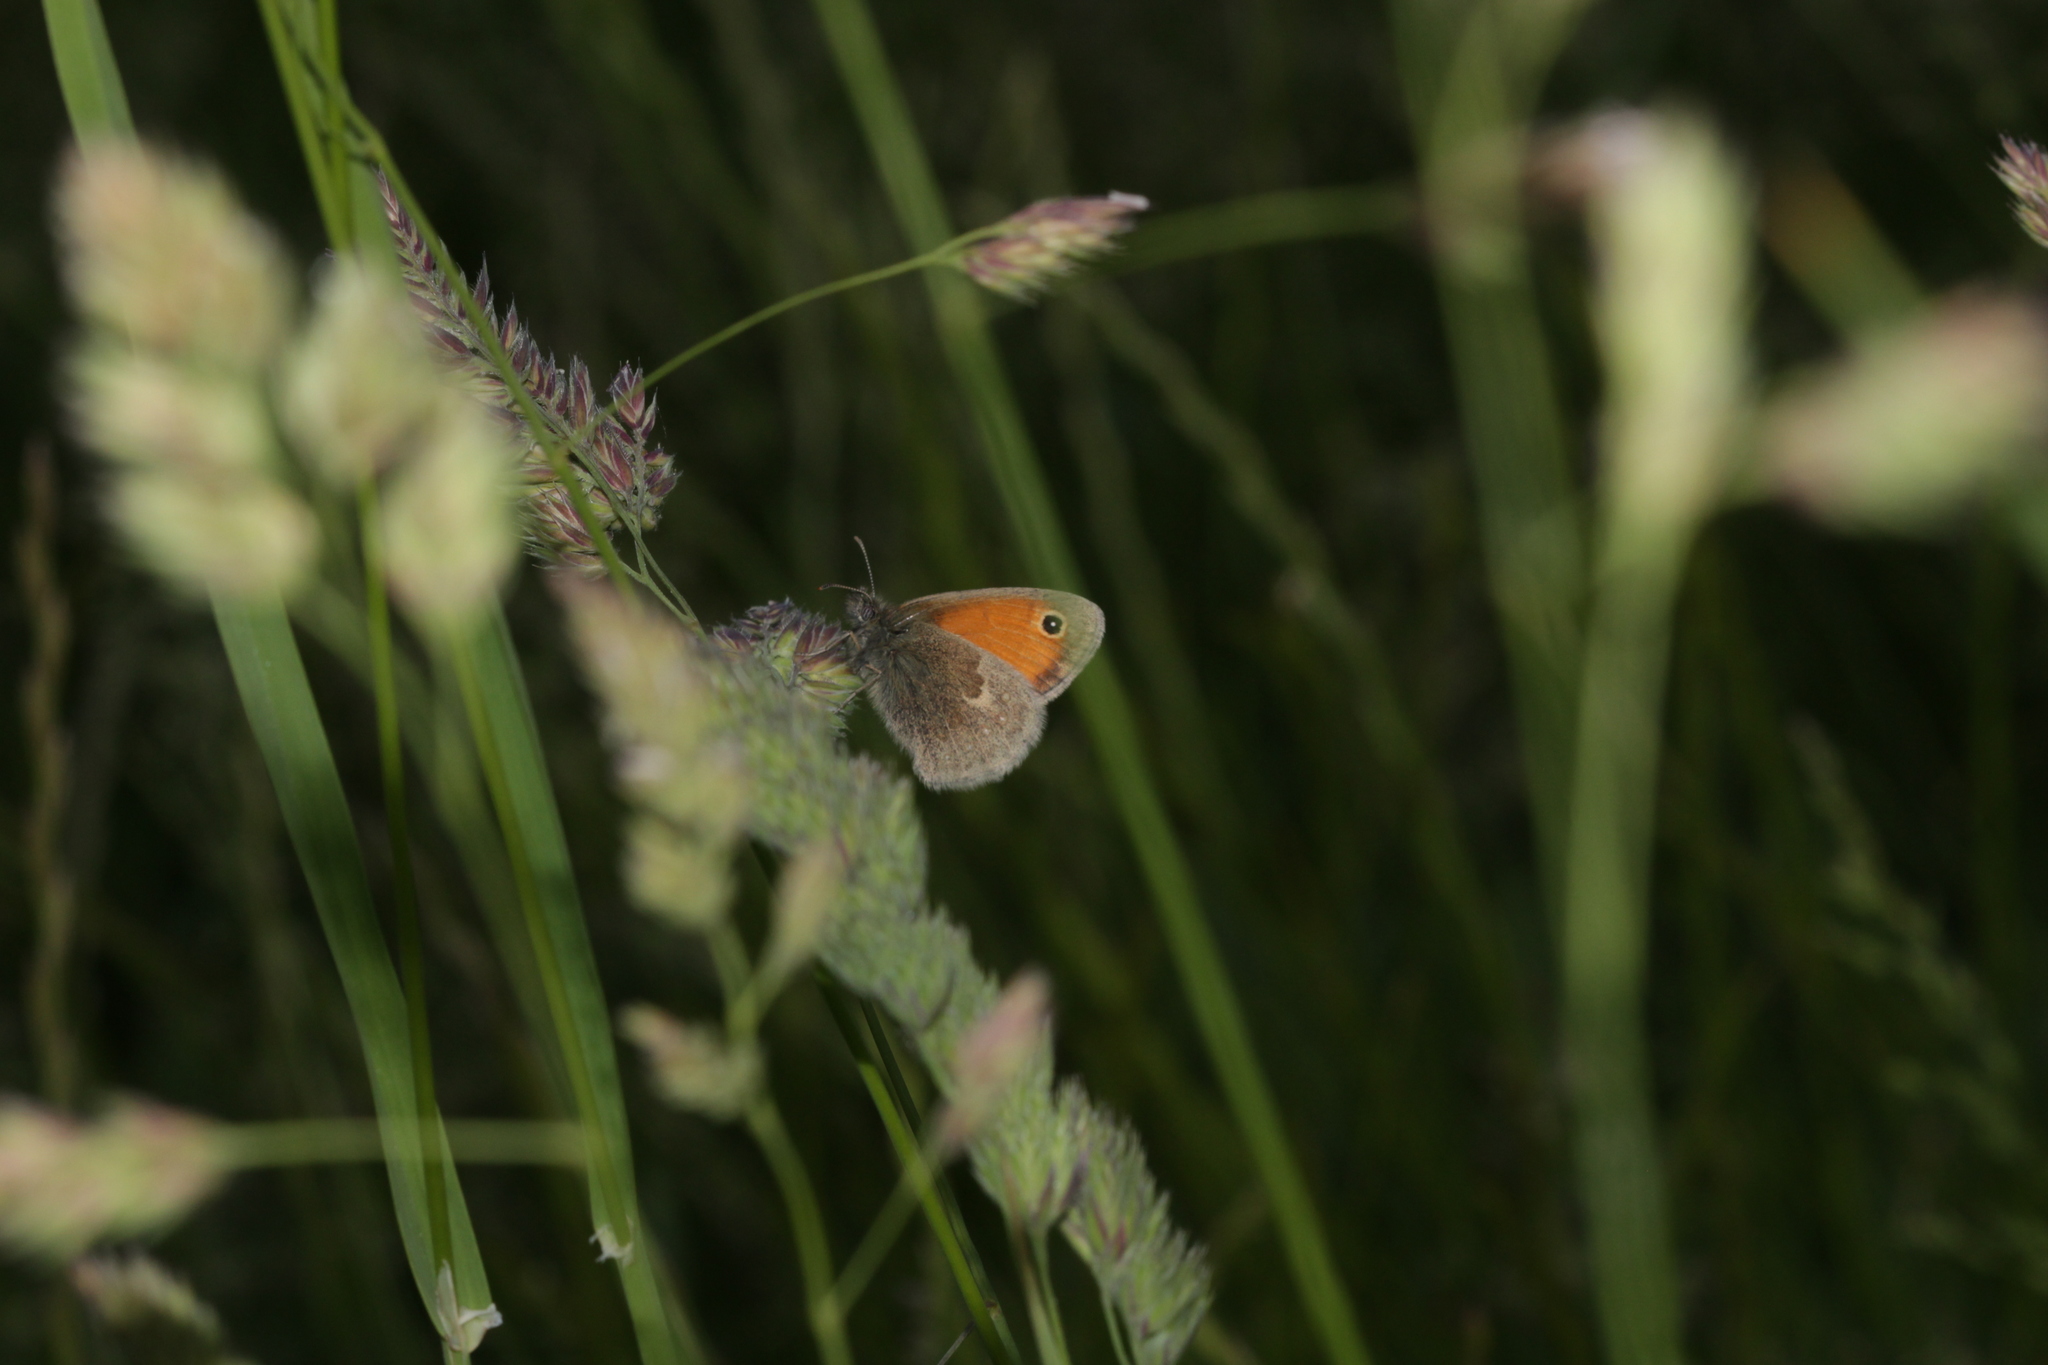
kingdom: Animalia
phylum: Arthropoda
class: Insecta
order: Lepidoptera
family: Nymphalidae
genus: Coenonympha
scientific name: Coenonympha pamphilus
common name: Small heath
